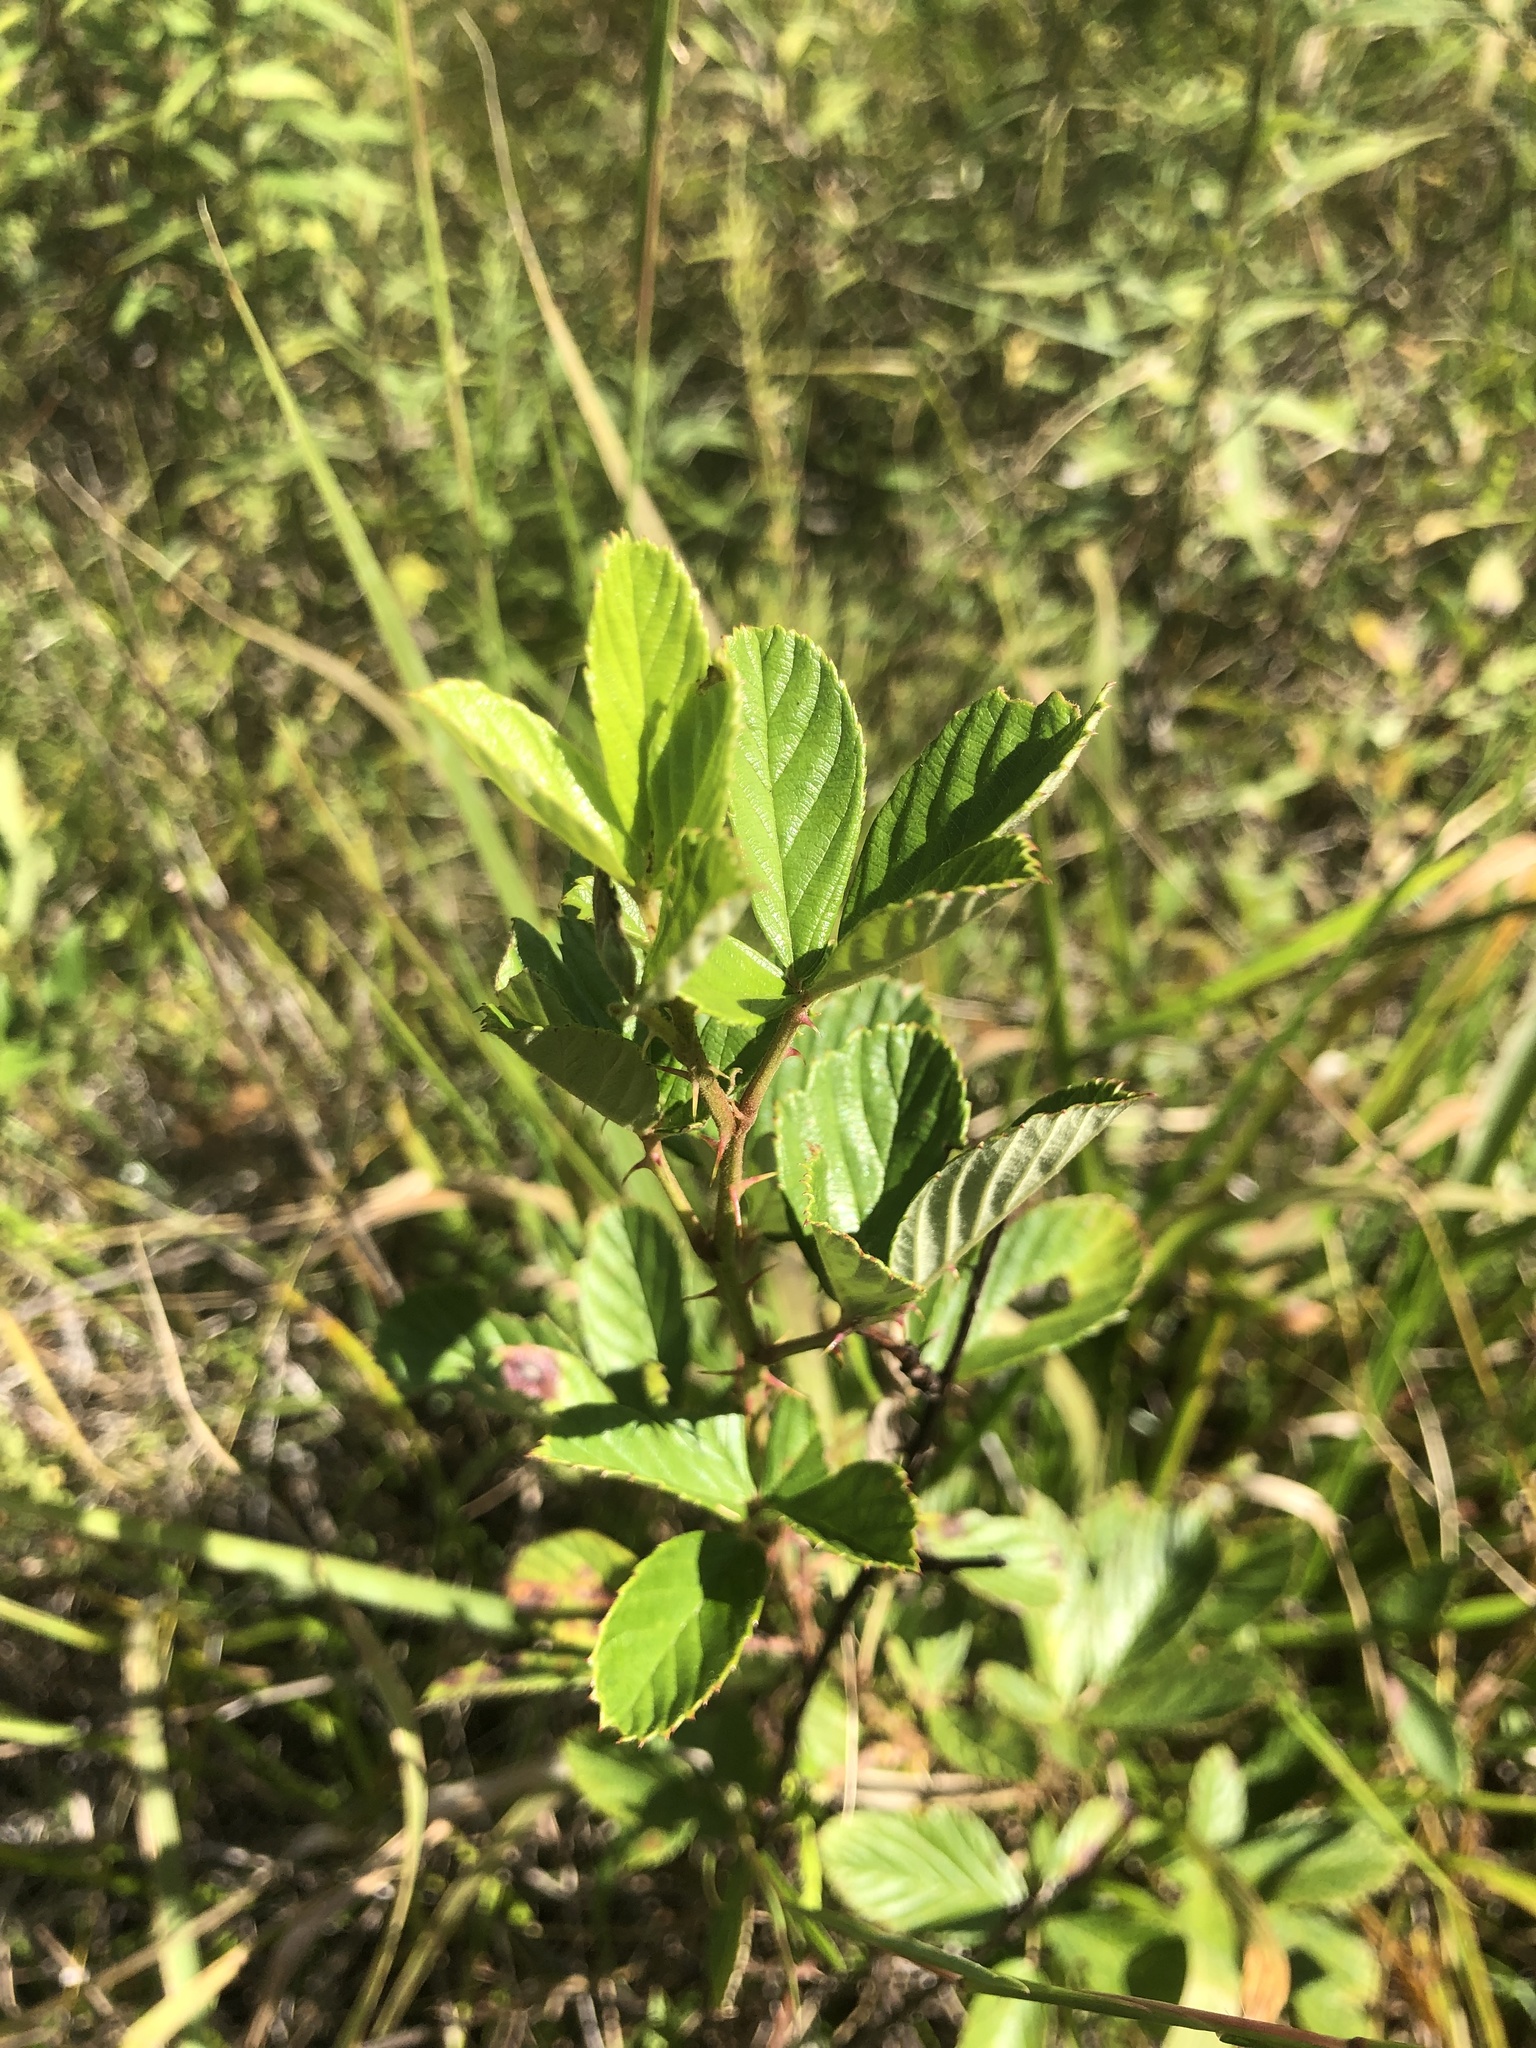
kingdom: Plantae
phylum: Tracheophyta
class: Magnoliopsida
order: Rosales
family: Rosaceae
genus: Rubus
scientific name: Rubus cuneifolius
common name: American bramble
